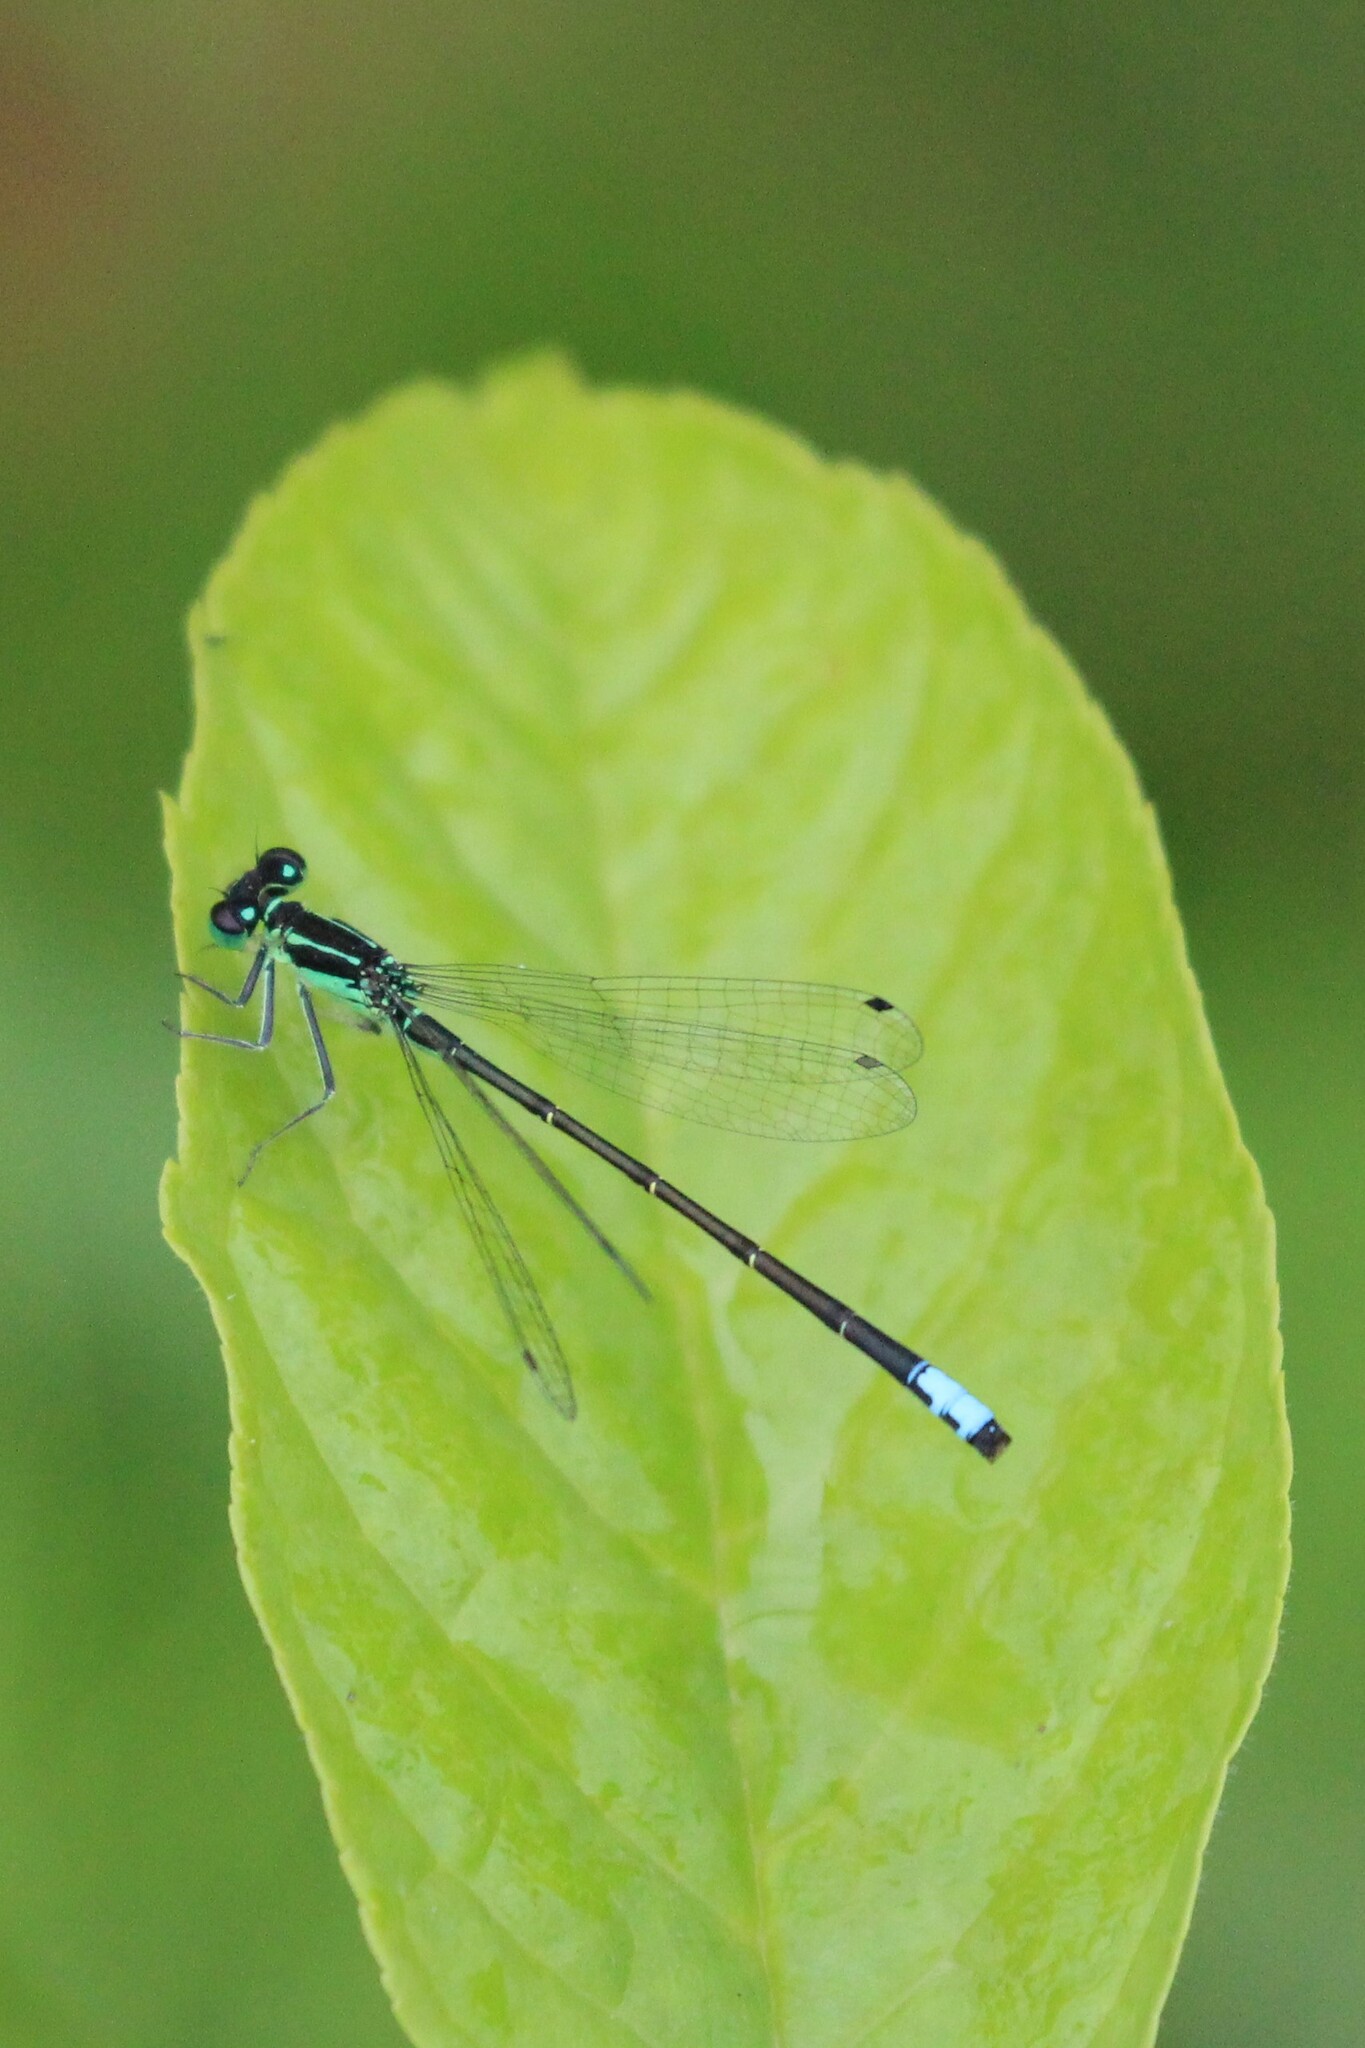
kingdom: Animalia
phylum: Arthropoda
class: Insecta
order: Odonata
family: Coenagrionidae
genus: Ischnura
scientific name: Ischnura verticalis
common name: Eastern forktail
